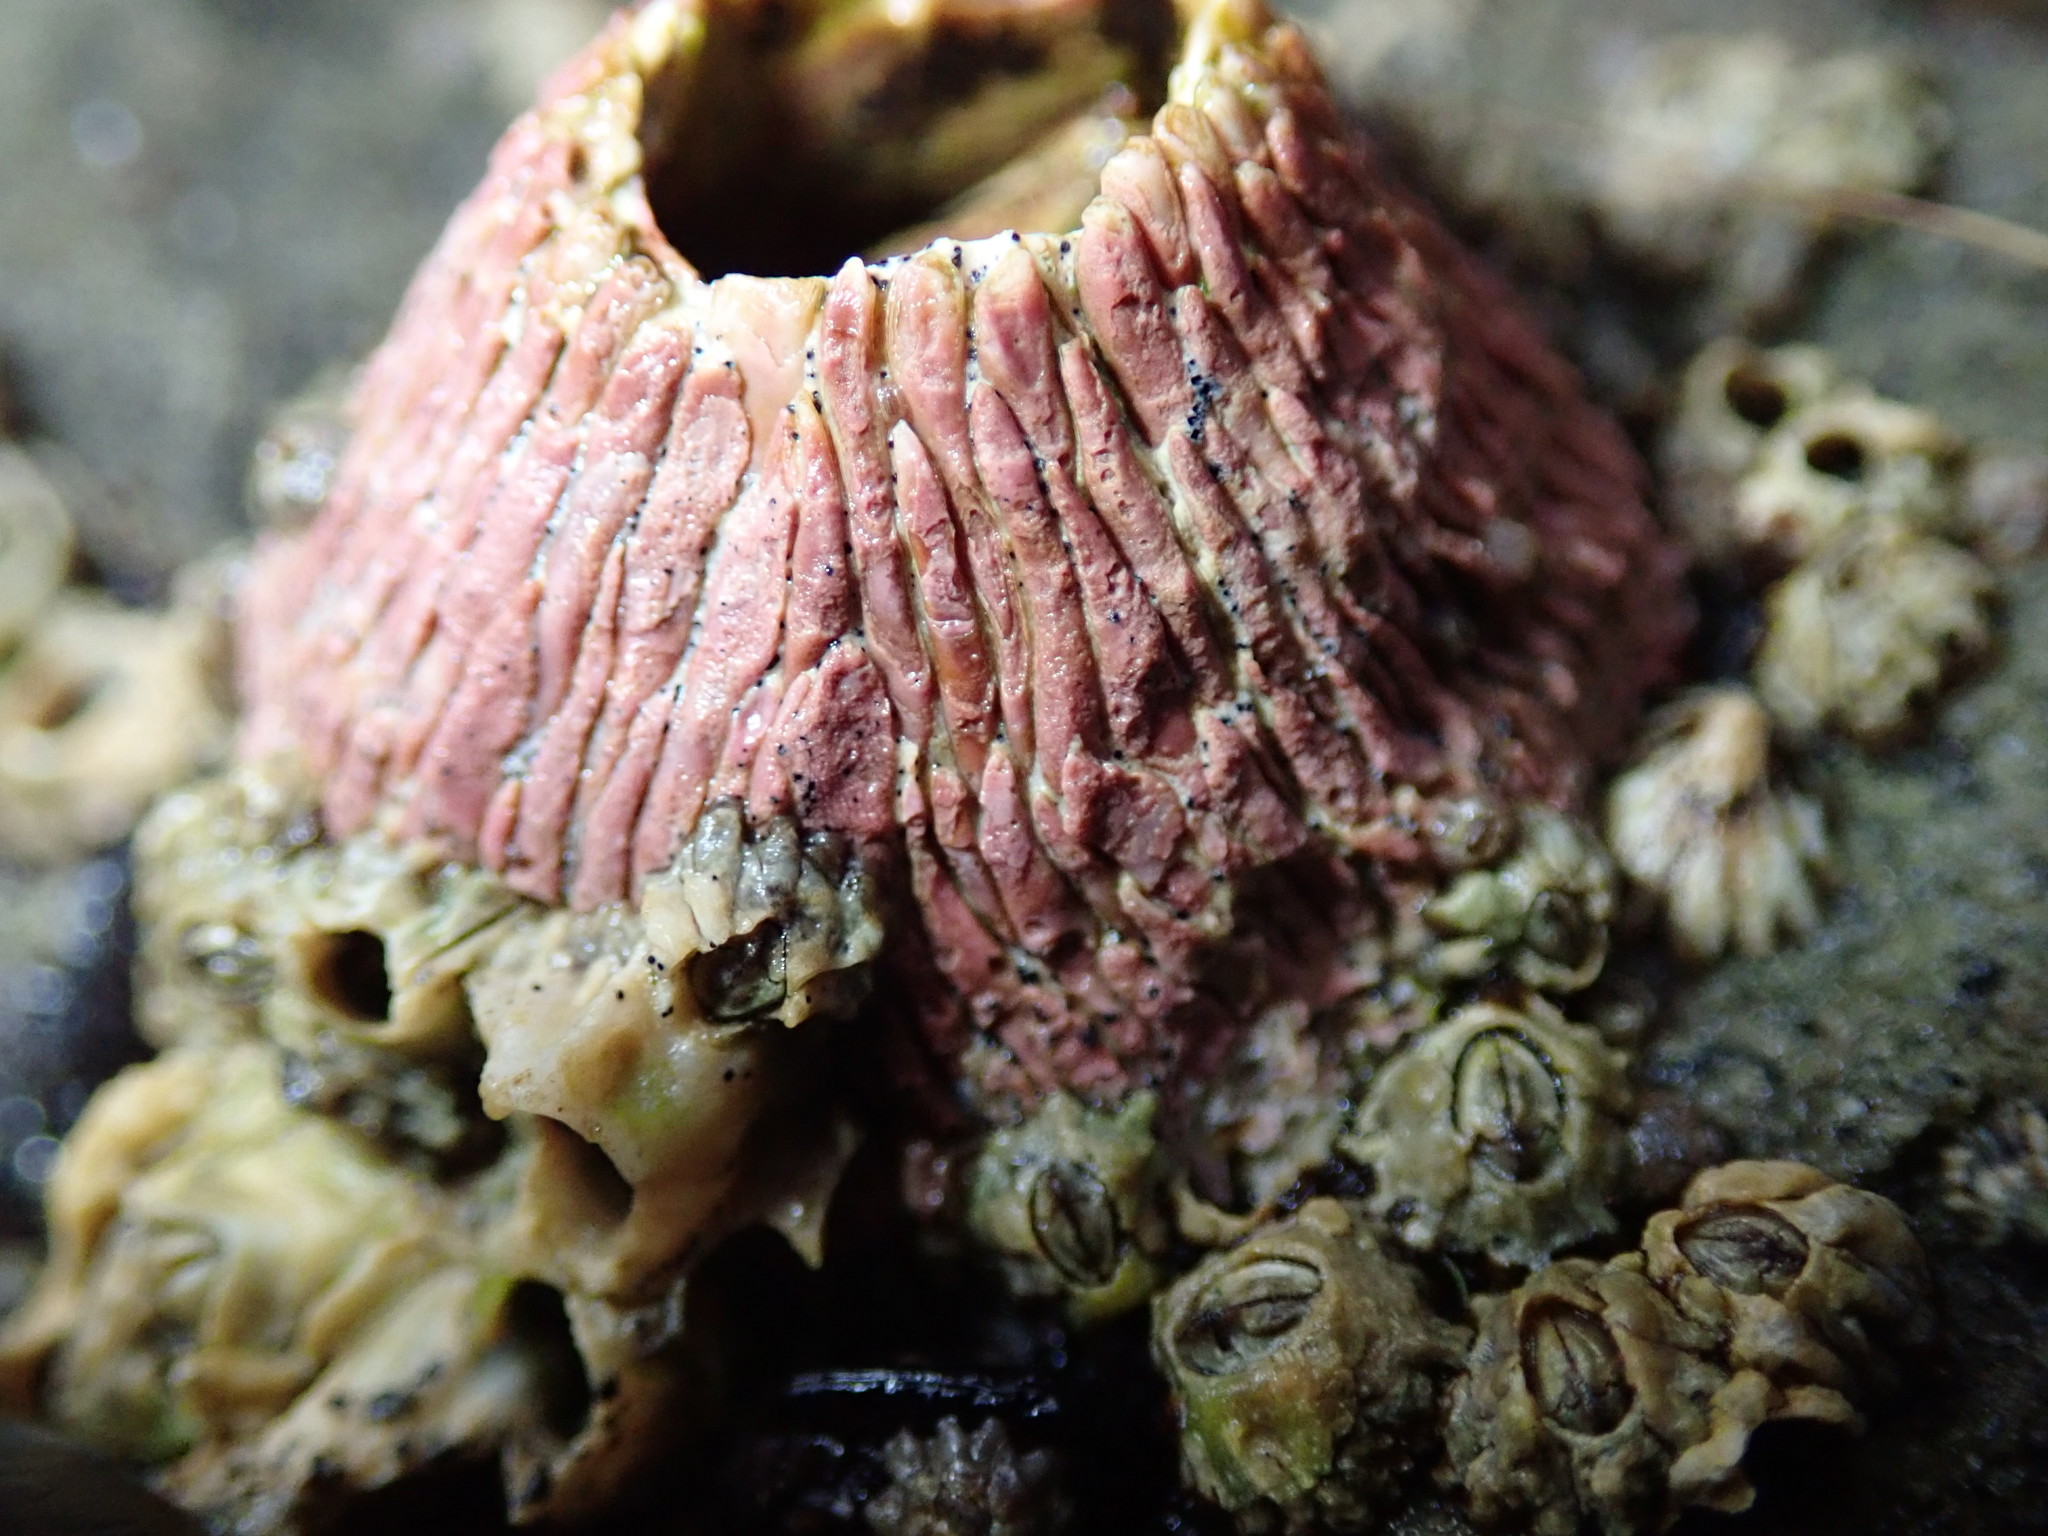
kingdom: Animalia
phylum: Arthropoda
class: Maxillopoda
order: Sessilia
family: Tetraclitidae
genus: Tetraclita
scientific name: Tetraclita rubescens
